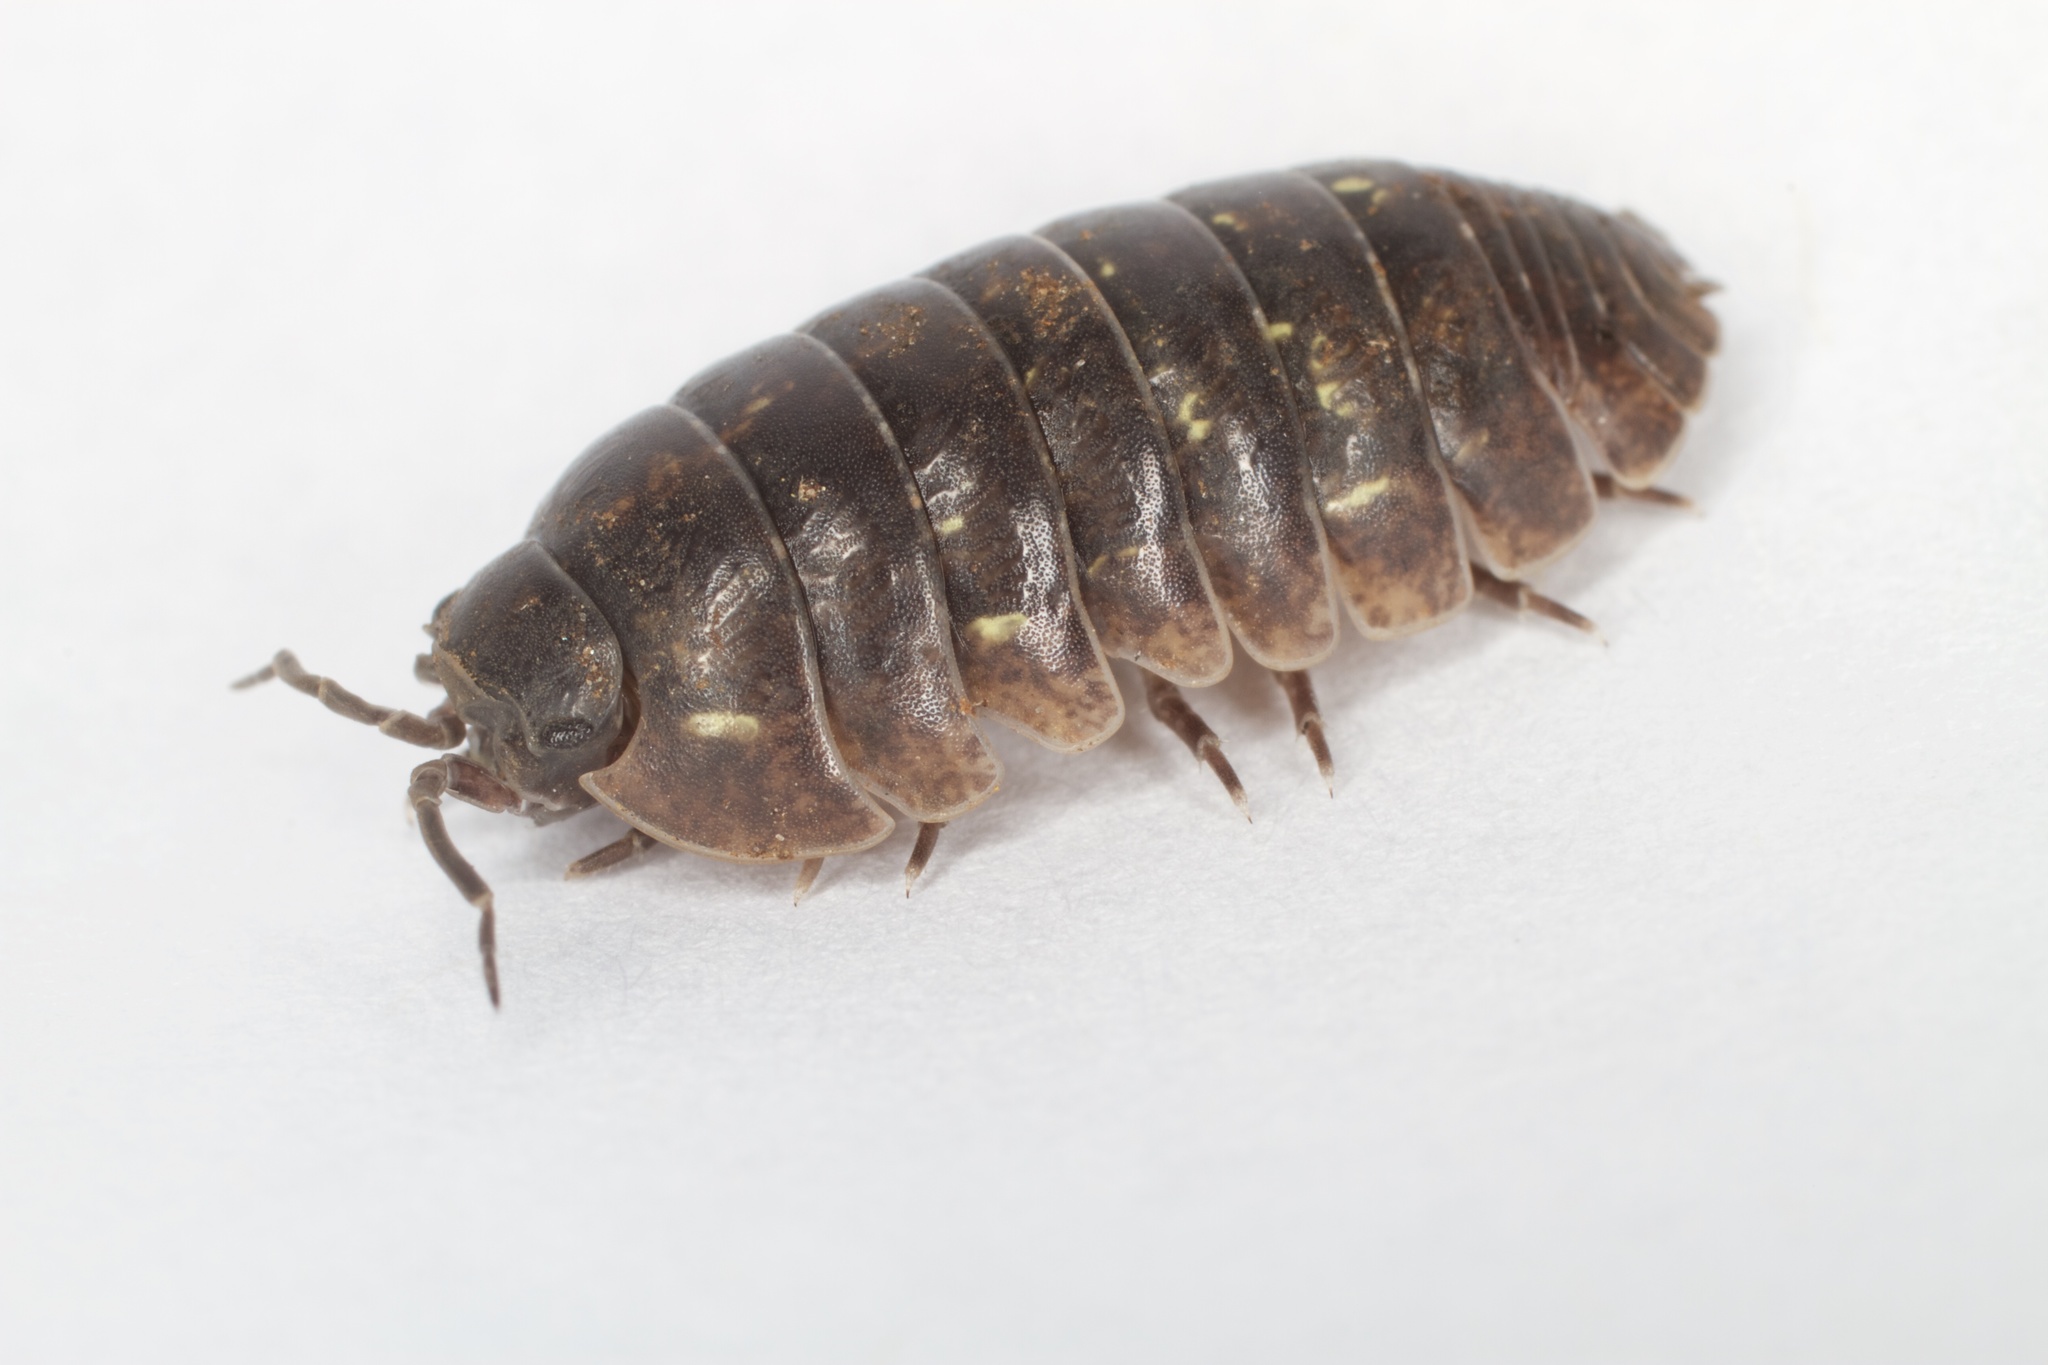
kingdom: Animalia
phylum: Arthropoda
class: Malacostraca
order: Isopoda
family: Armadillidiidae
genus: Armadillidium
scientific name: Armadillidium vulgare
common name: Common pill woodlouse
